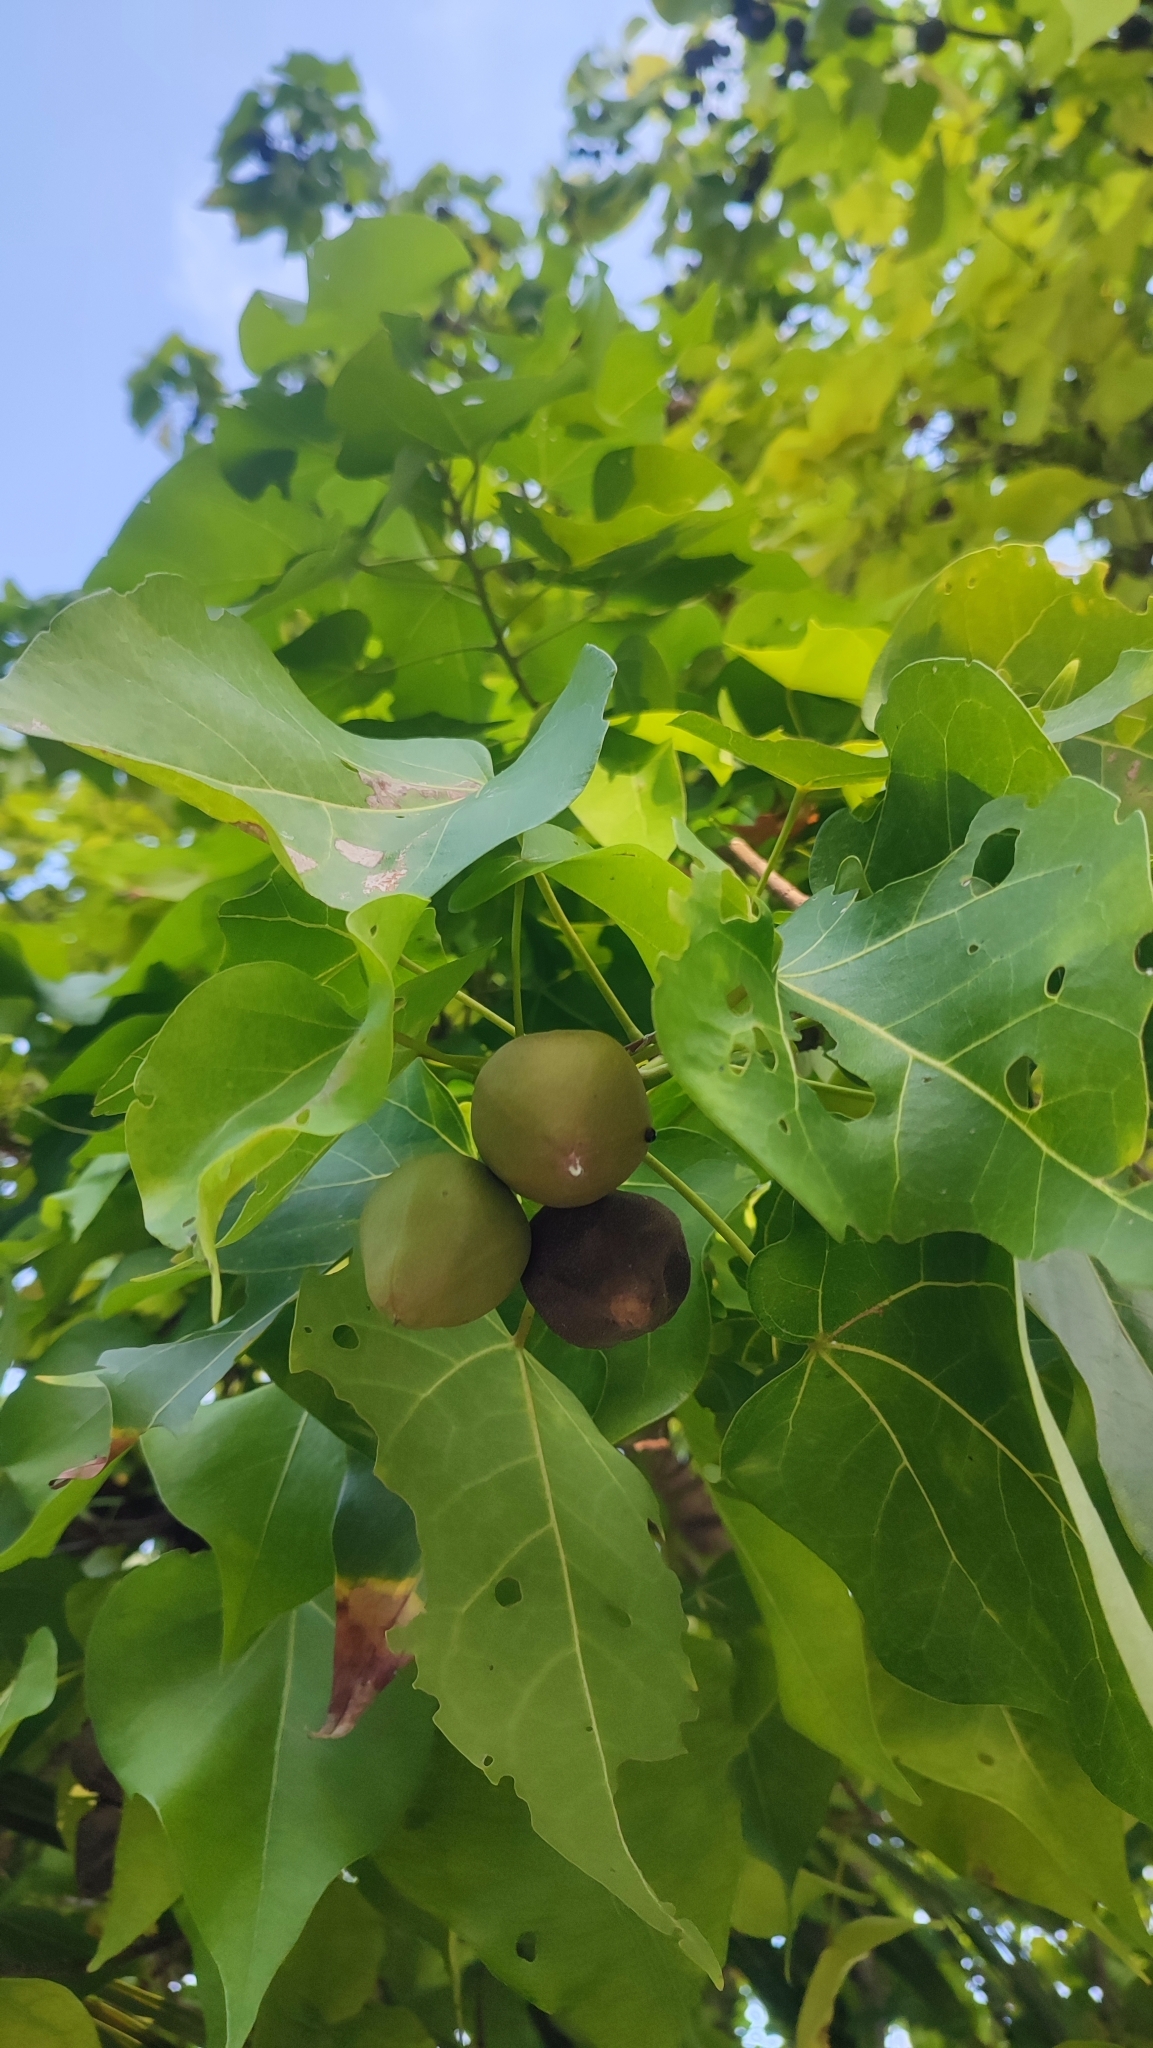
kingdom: Plantae
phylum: Tracheophyta
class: Magnoliopsida
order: Malvales
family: Malvaceae
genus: Thespesia
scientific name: Thespesia populnea
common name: Seaside mahoe
